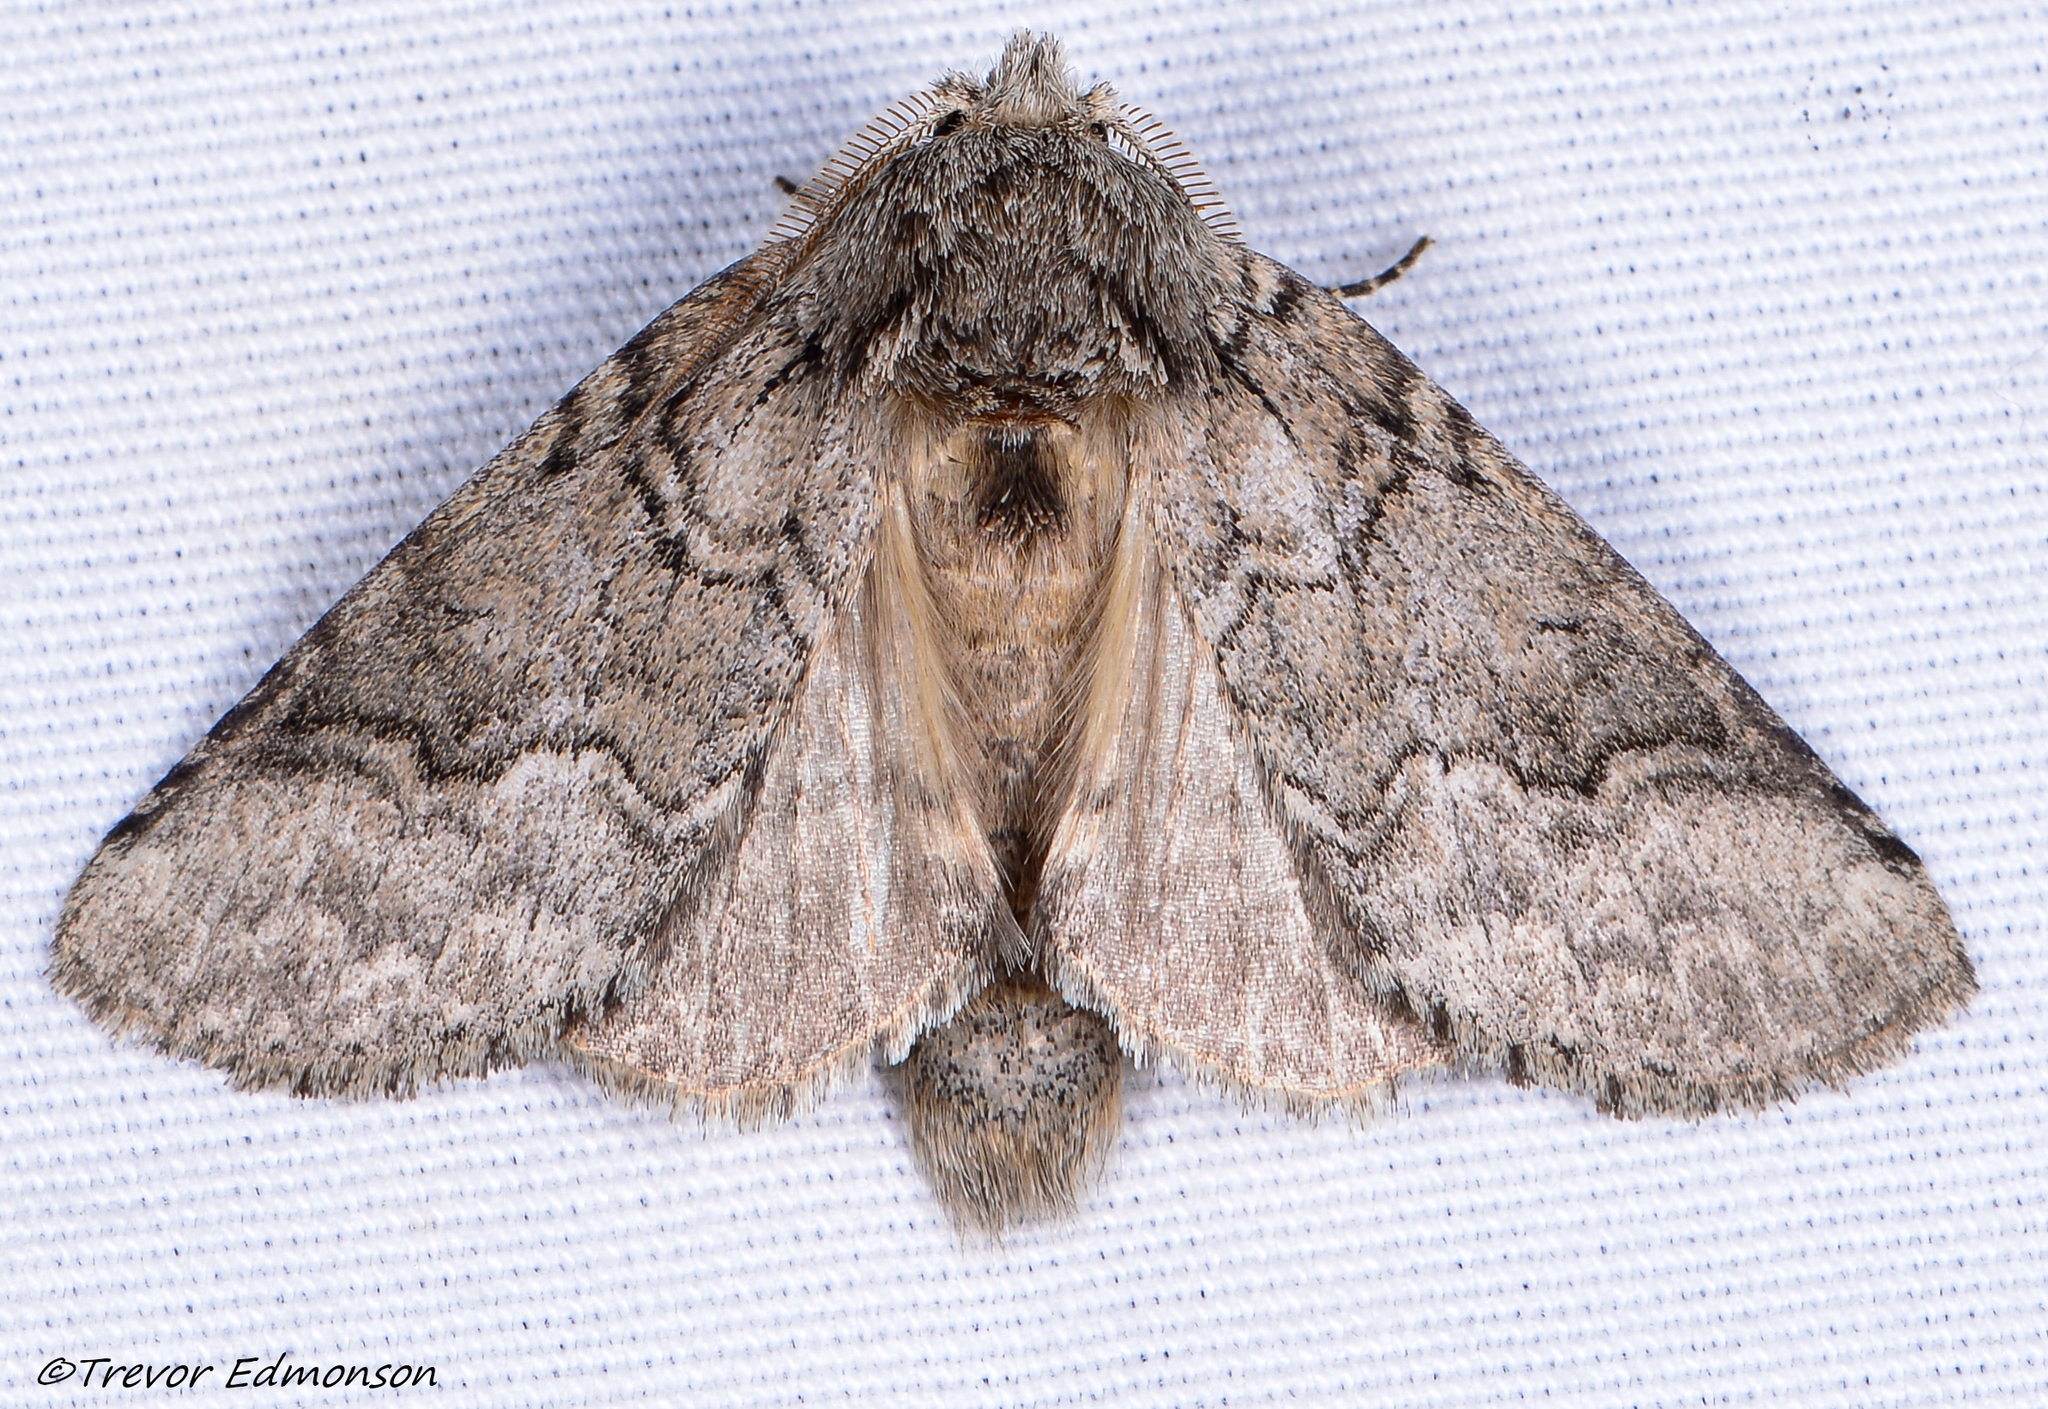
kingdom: Animalia
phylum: Arthropoda
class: Insecta
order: Lepidoptera
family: Notodontidae
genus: Lochmaeus
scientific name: Lochmaeus bilineata
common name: Double-lined prominent
